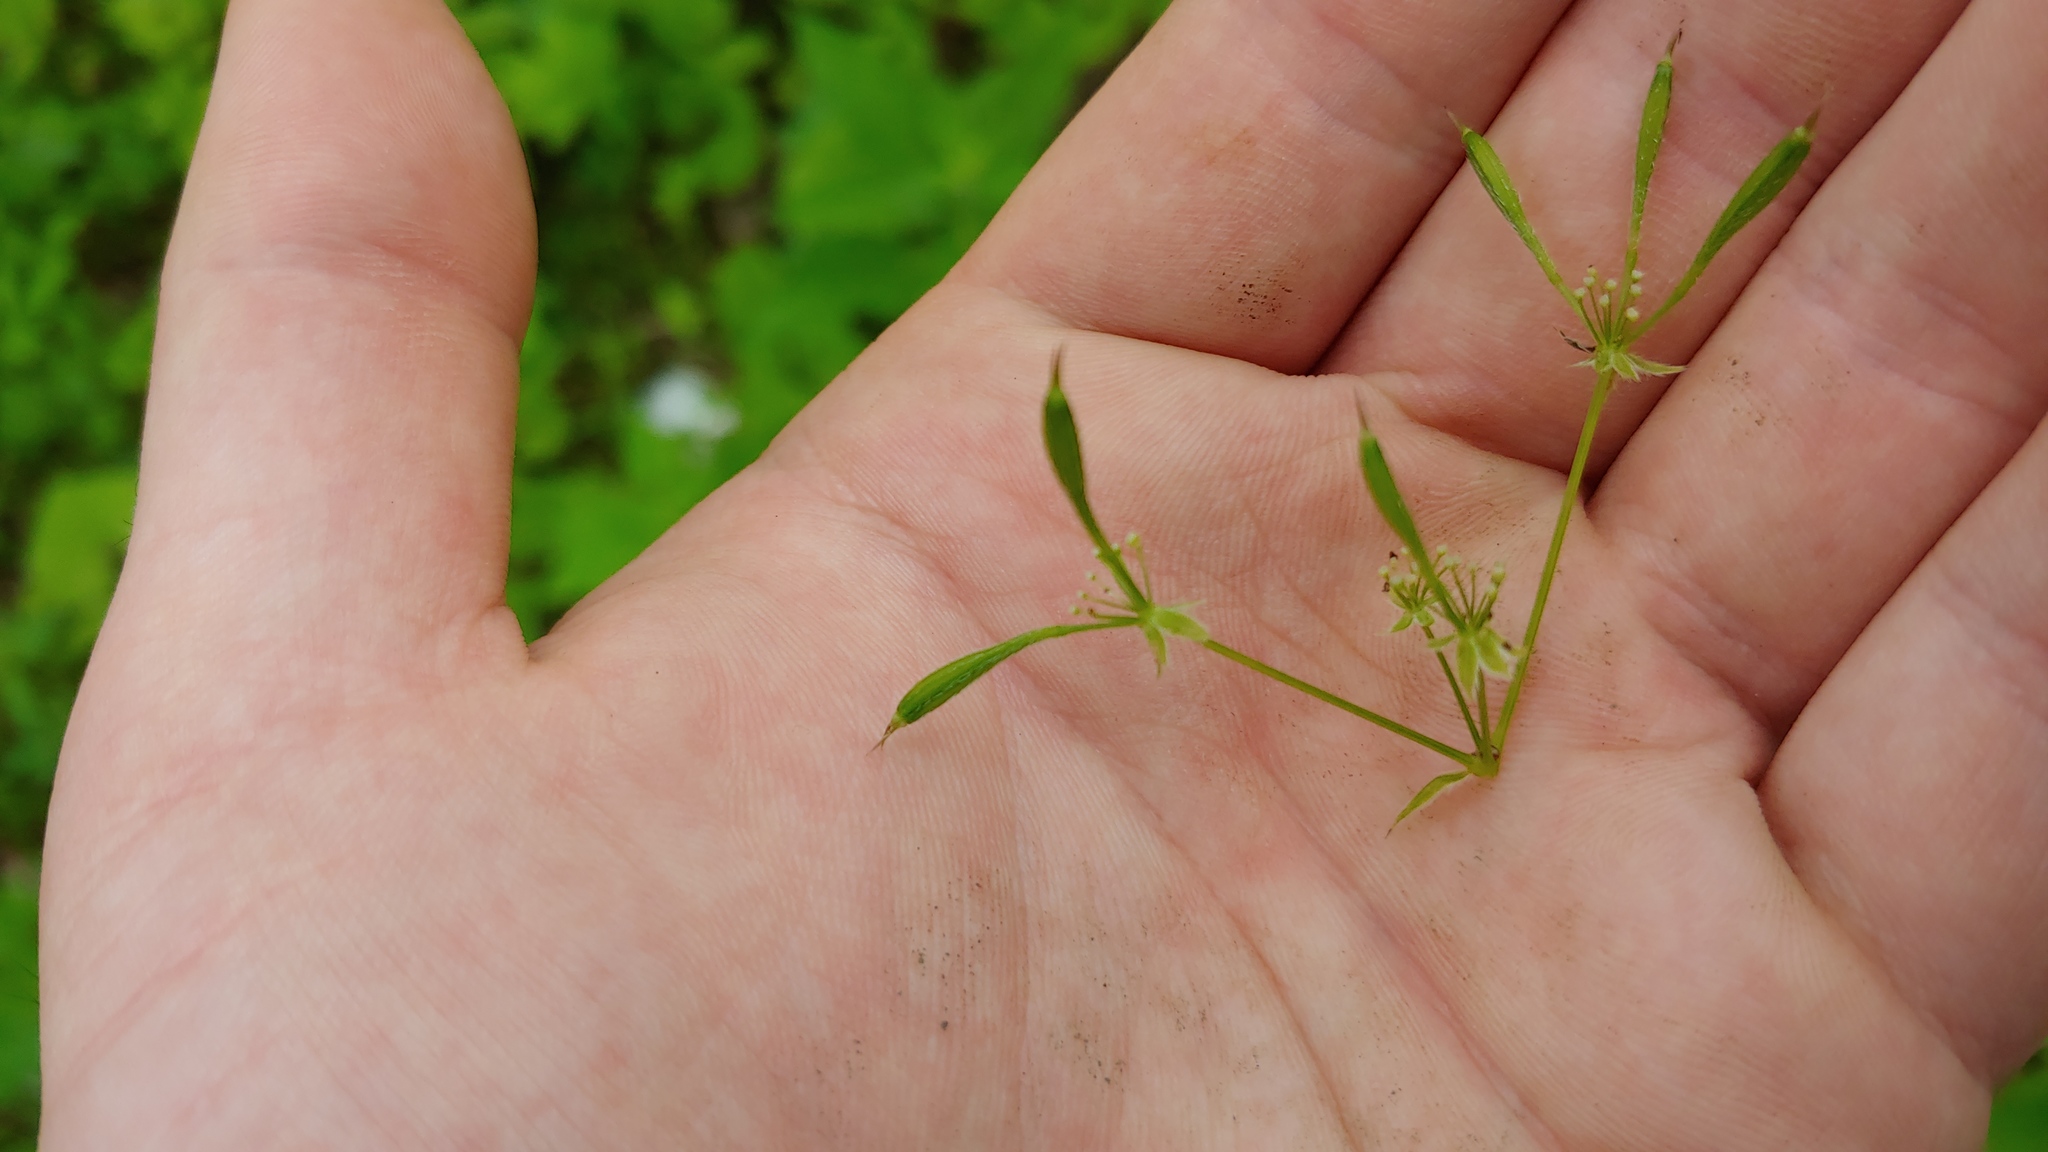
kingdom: Plantae
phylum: Tracheophyta
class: Magnoliopsida
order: Apiales
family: Apiaceae
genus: Osmorhiza
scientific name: Osmorhiza longistylis
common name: Smooth sweet cicely
